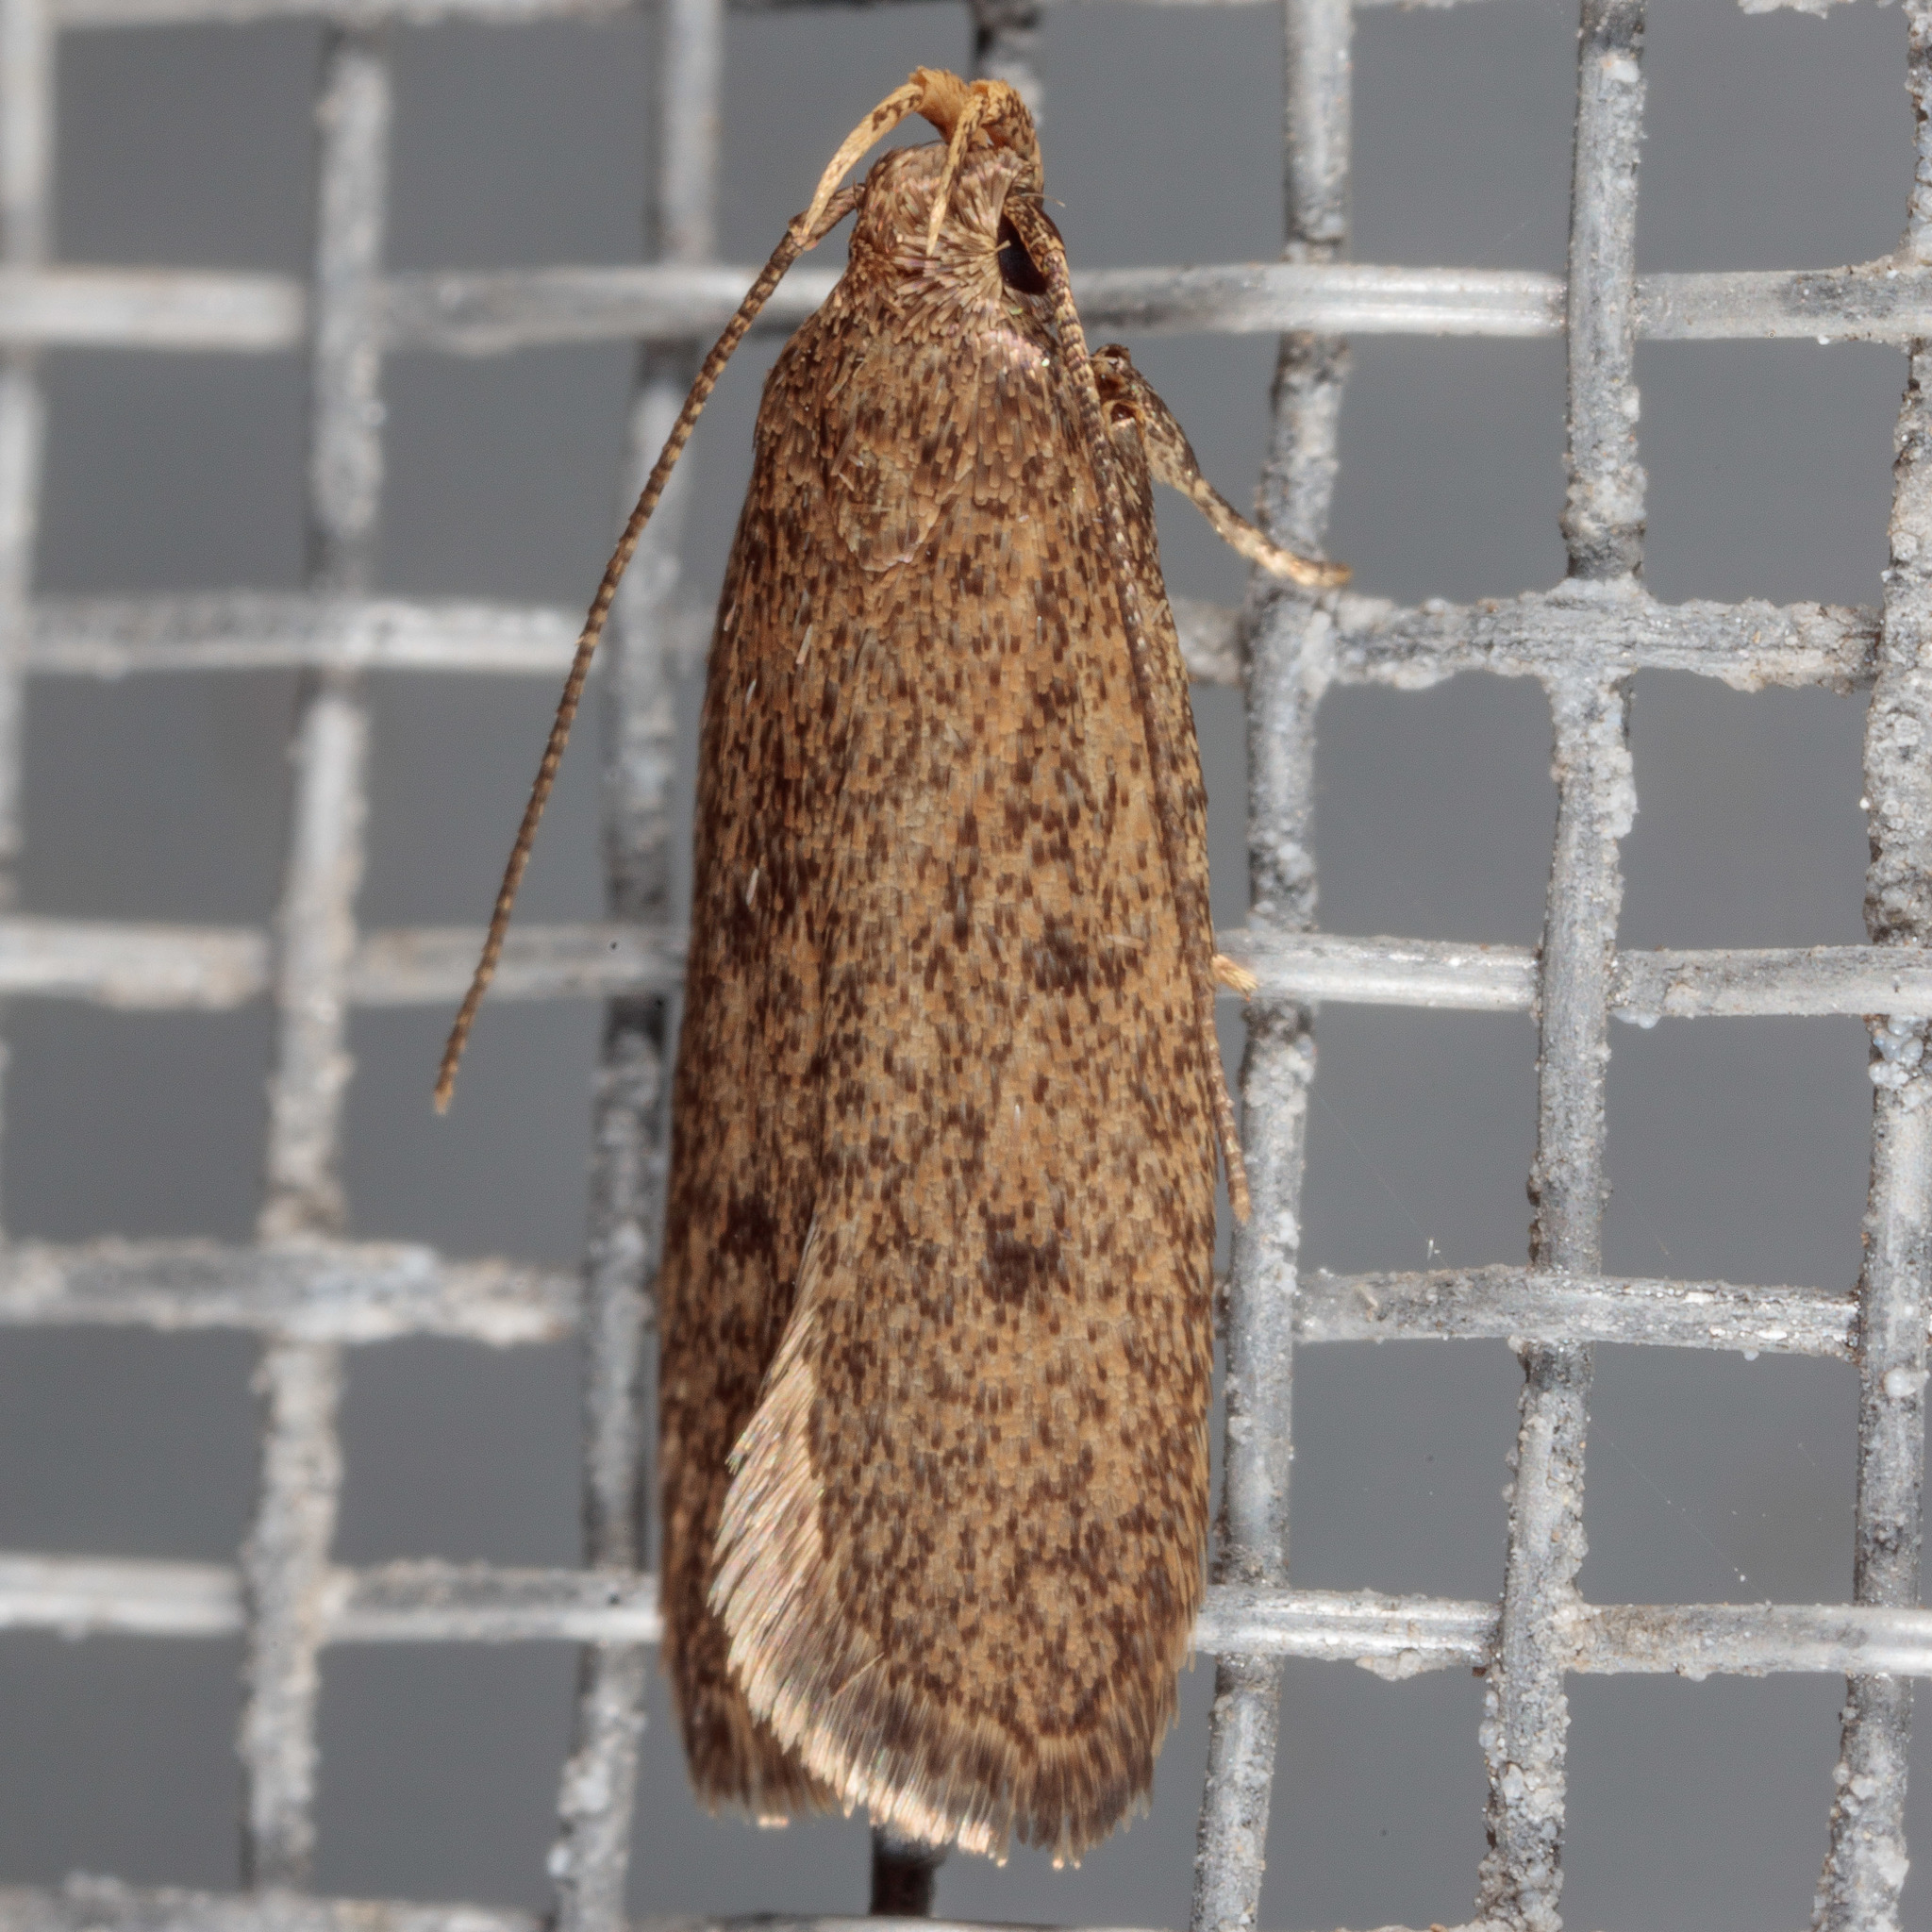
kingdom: Animalia
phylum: Arthropoda
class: Insecta
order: Lepidoptera
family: Autostichidae
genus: Glyphidocera
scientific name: Glyphidocera juniperella
